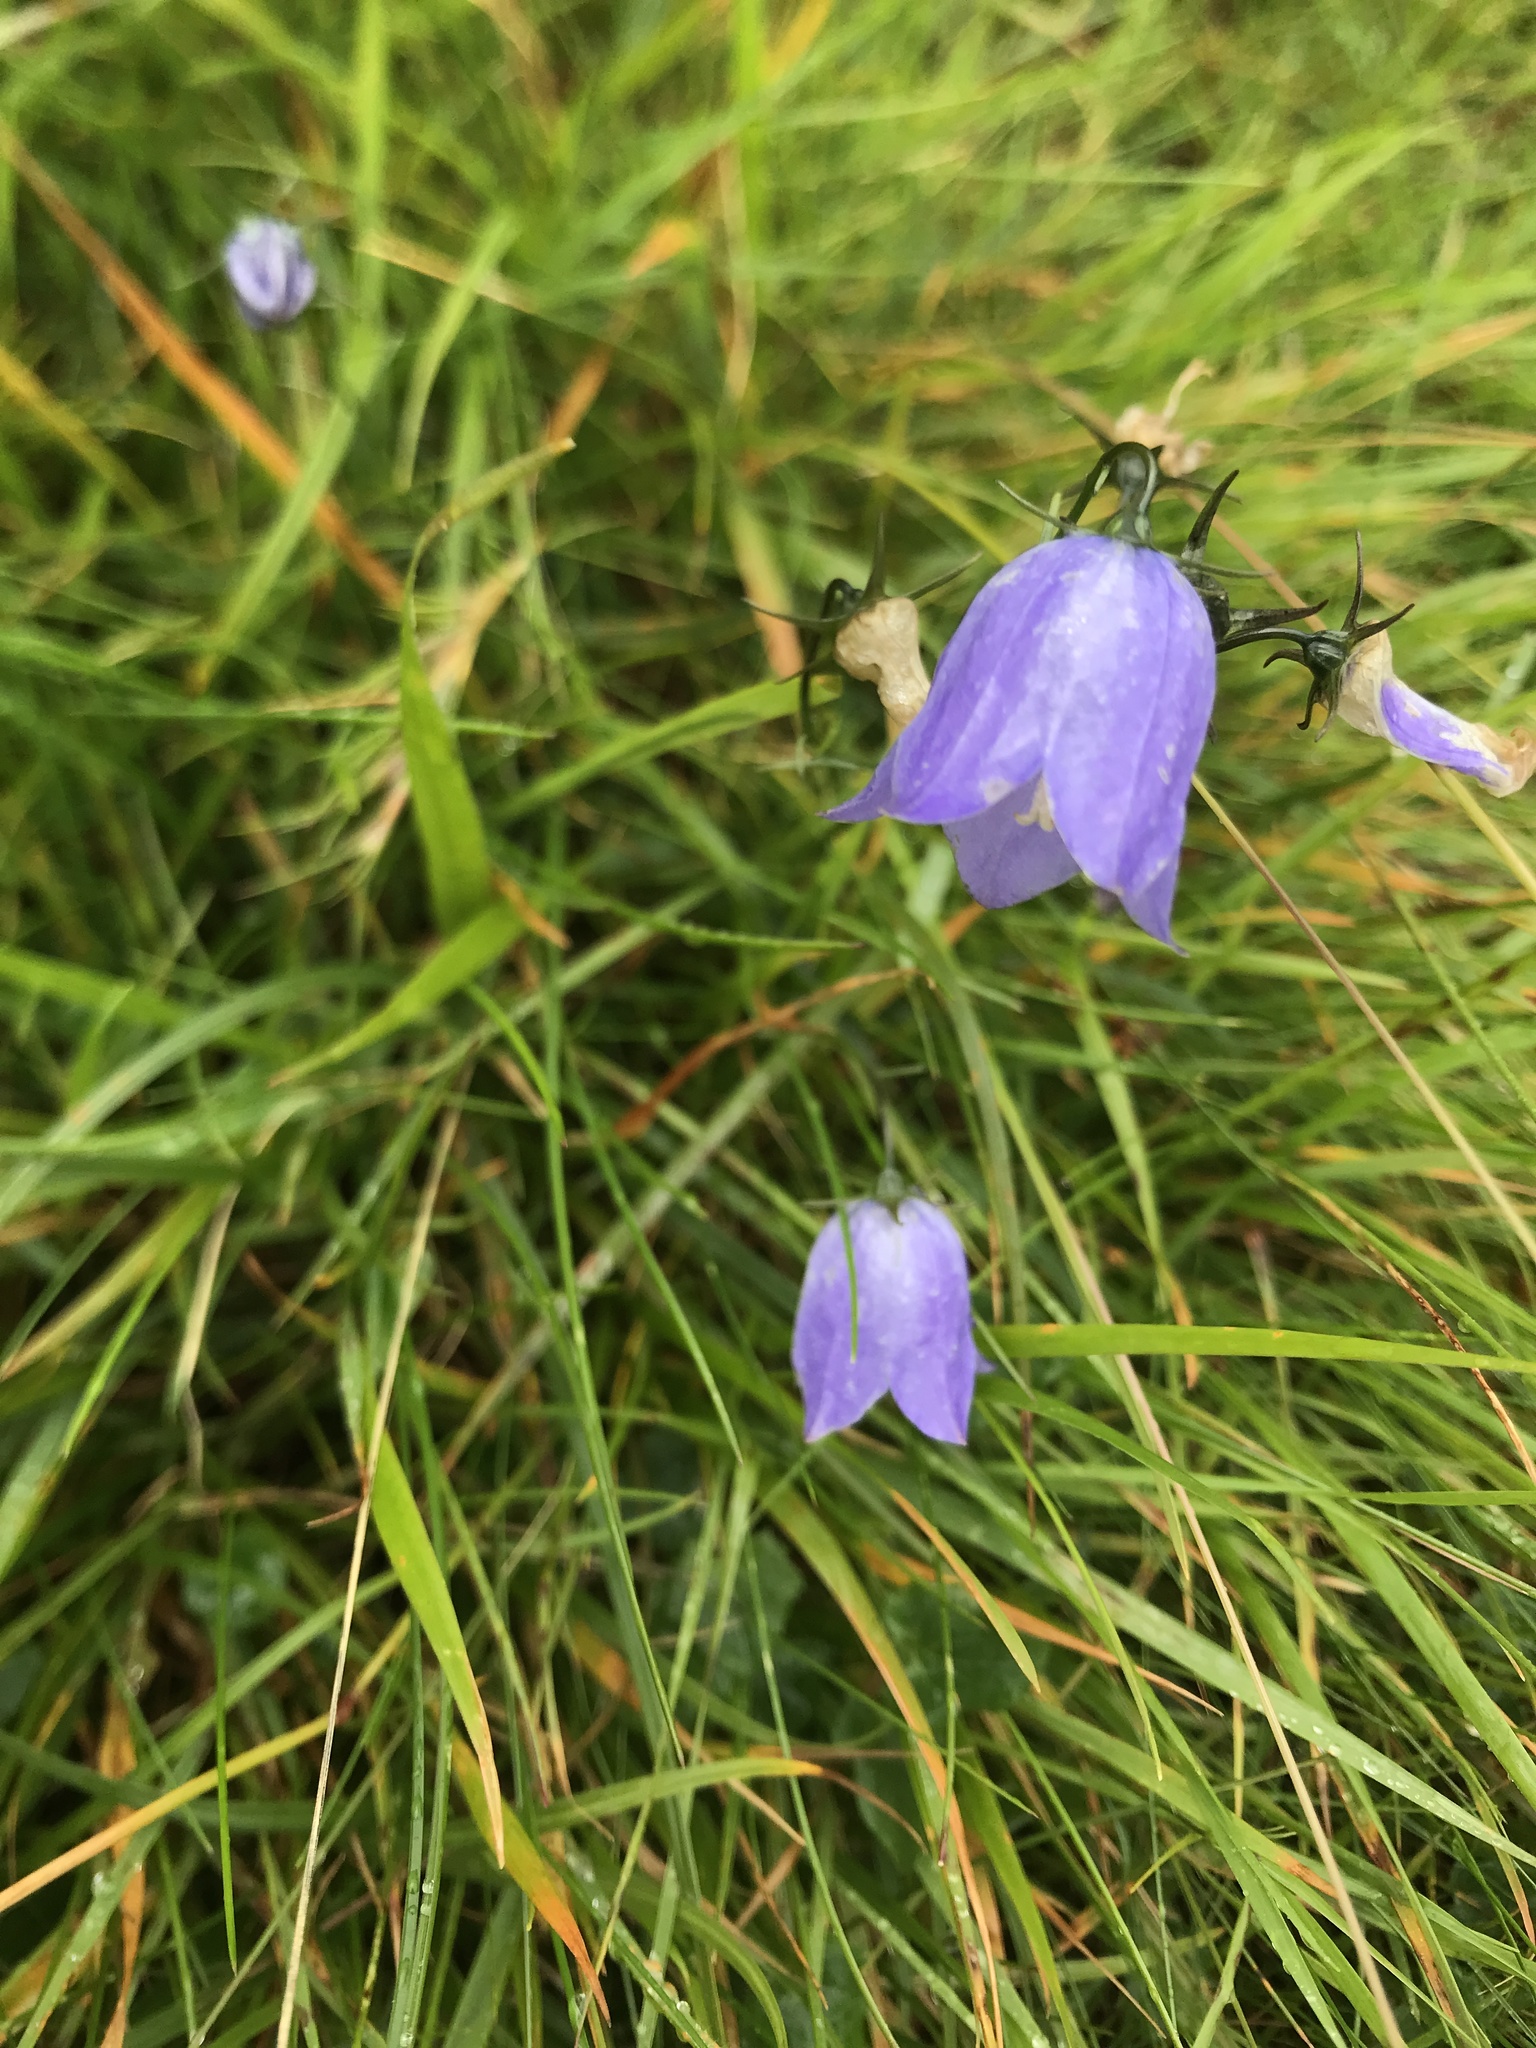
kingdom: Plantae
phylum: Tracheophyta
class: Magnoliopsida
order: Asterales
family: Campanulaceae
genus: Campanula
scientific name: Campanula rotundifolia
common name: Harebell
